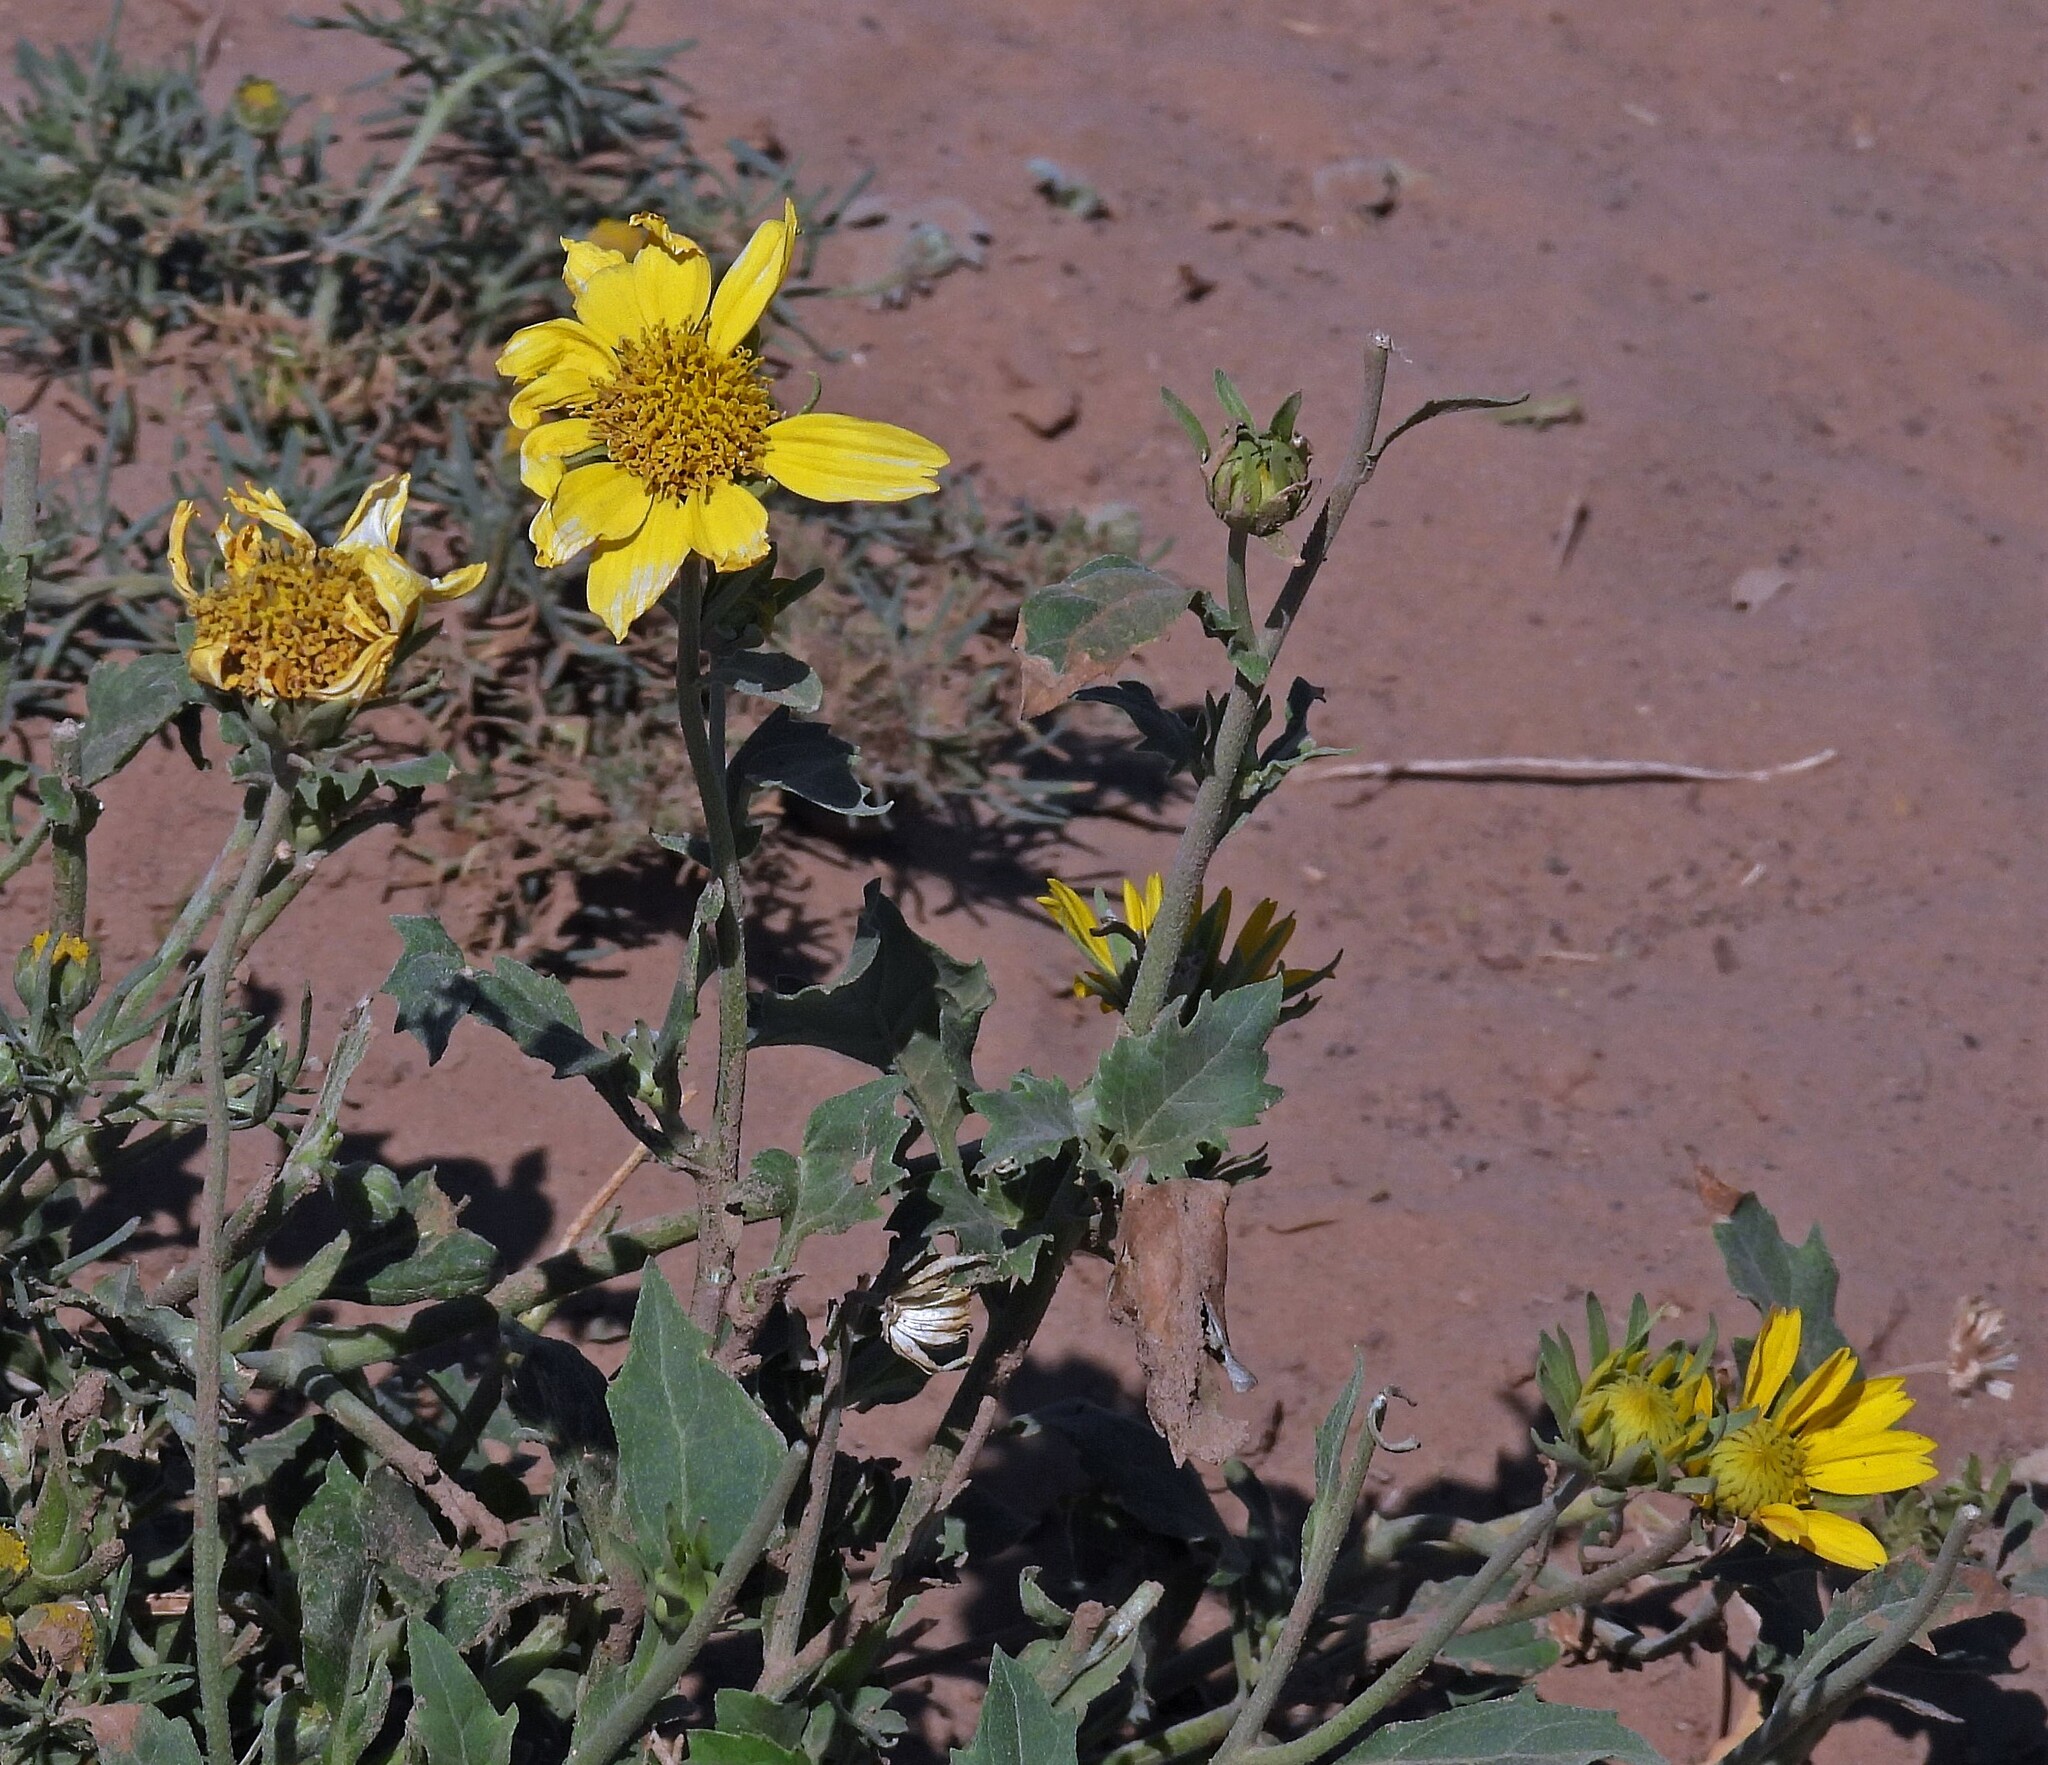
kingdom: Plantae
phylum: Tracheophyta
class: Magnoliopsida
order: Asterales
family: Asteraceae
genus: Verbesina
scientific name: Verbesina encelioides
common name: Golden crownbeard
